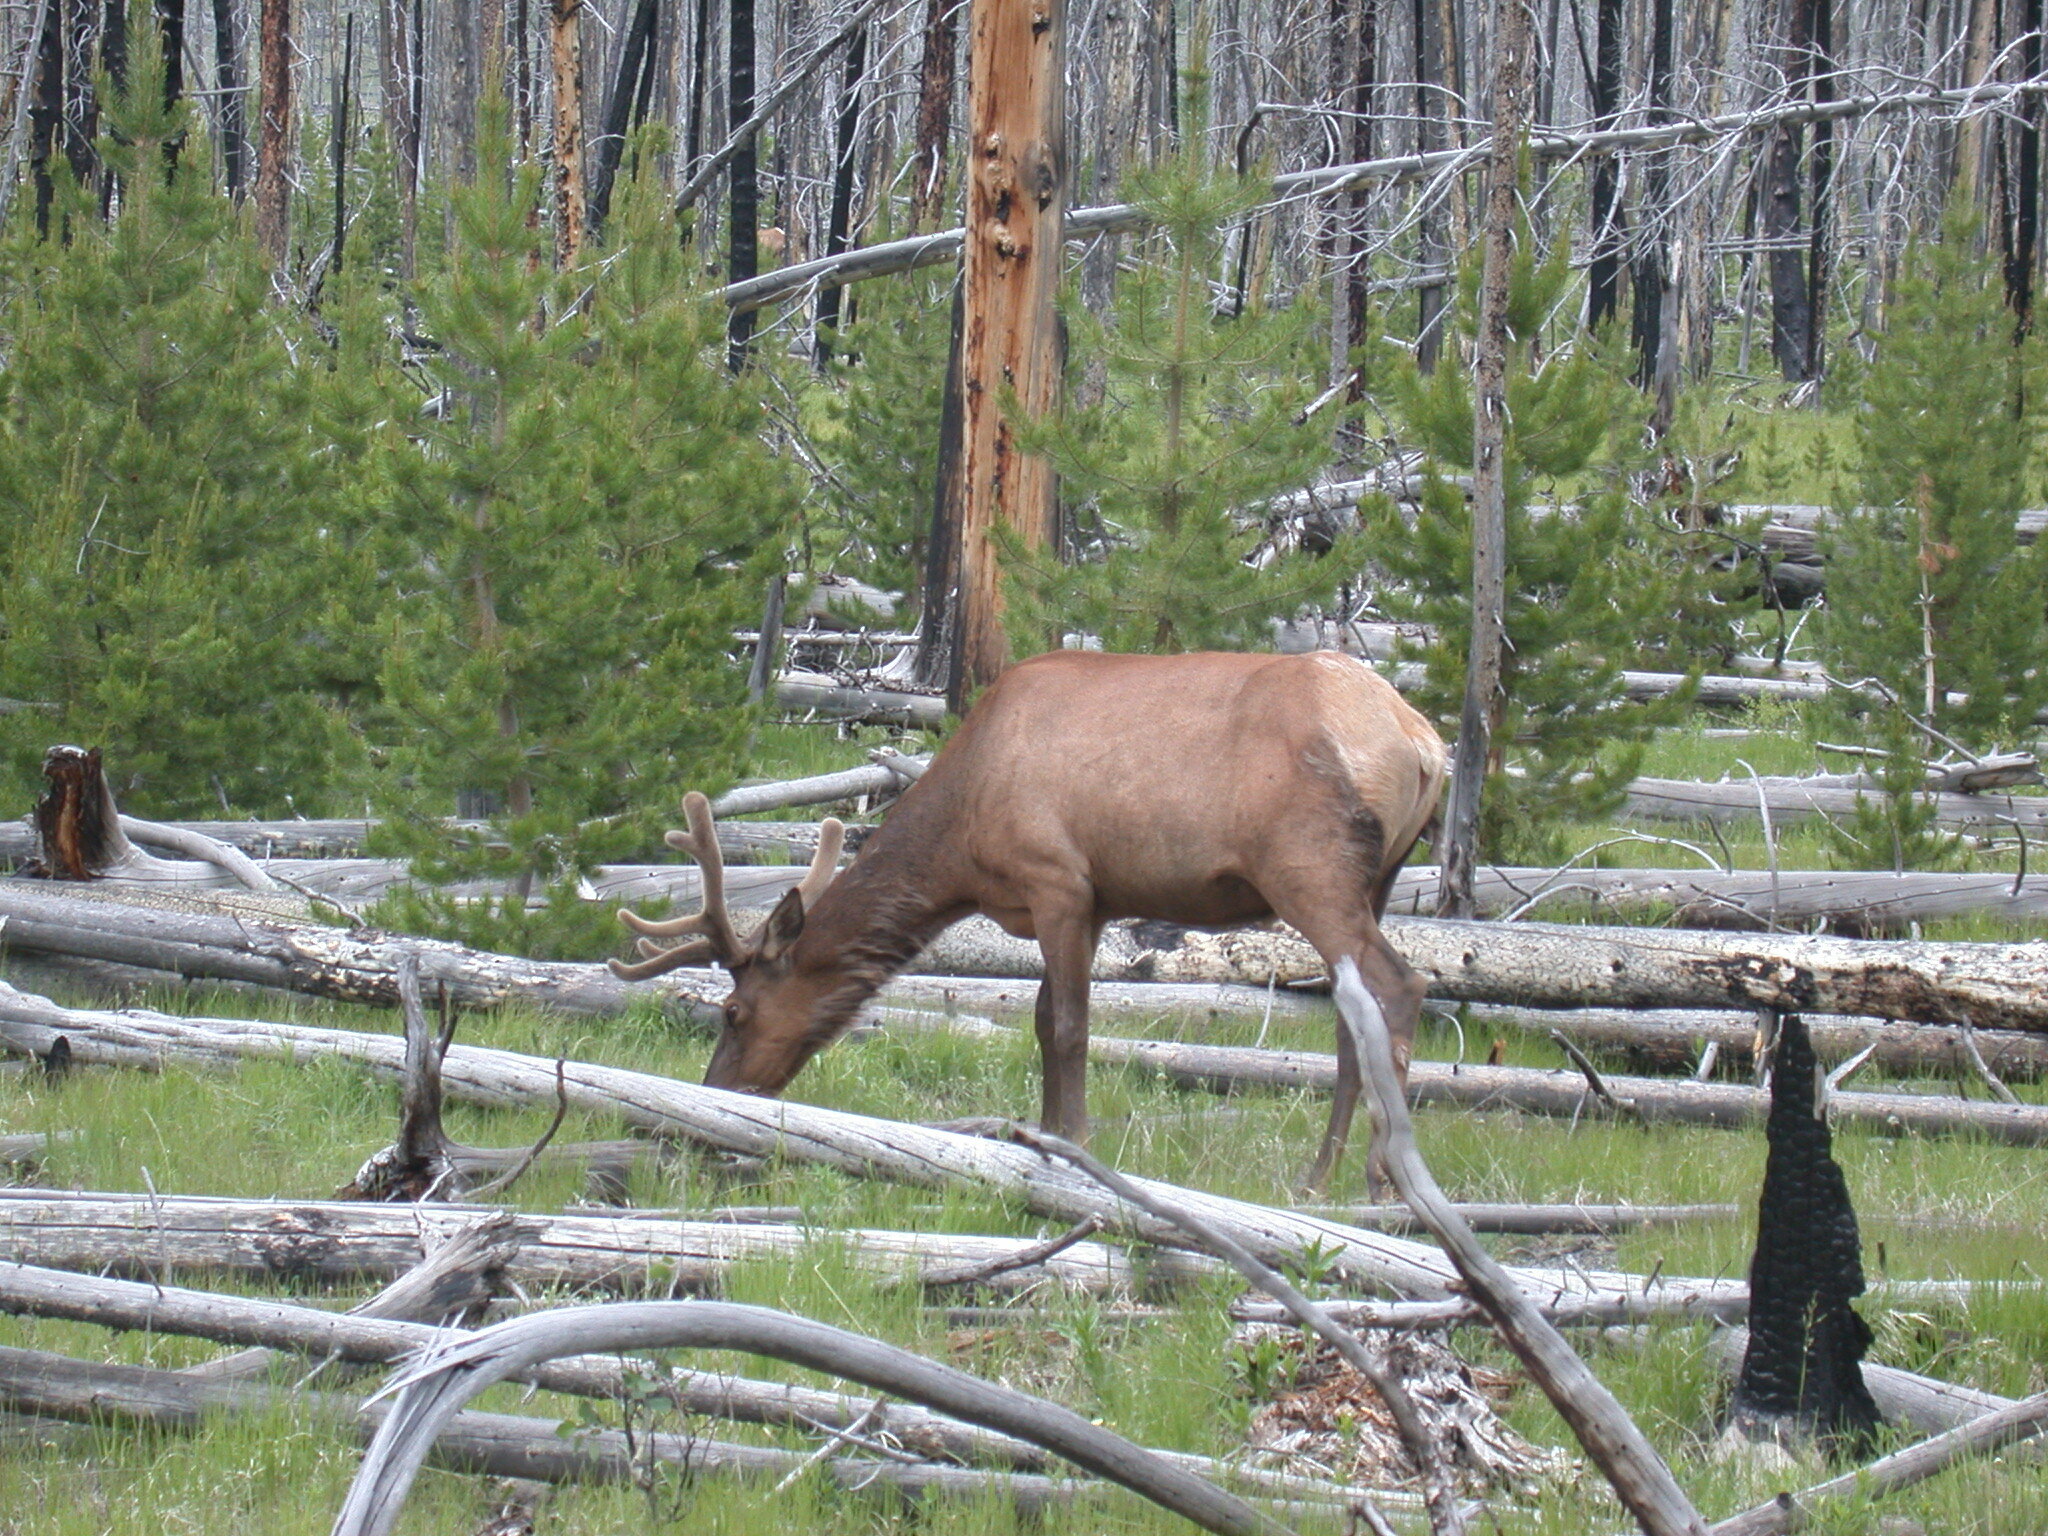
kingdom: Animalia
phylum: Chordata
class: Mammalia
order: Artiodactyla
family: Cervidae
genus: Cervus
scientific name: Cervus elaphus
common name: Red deer
